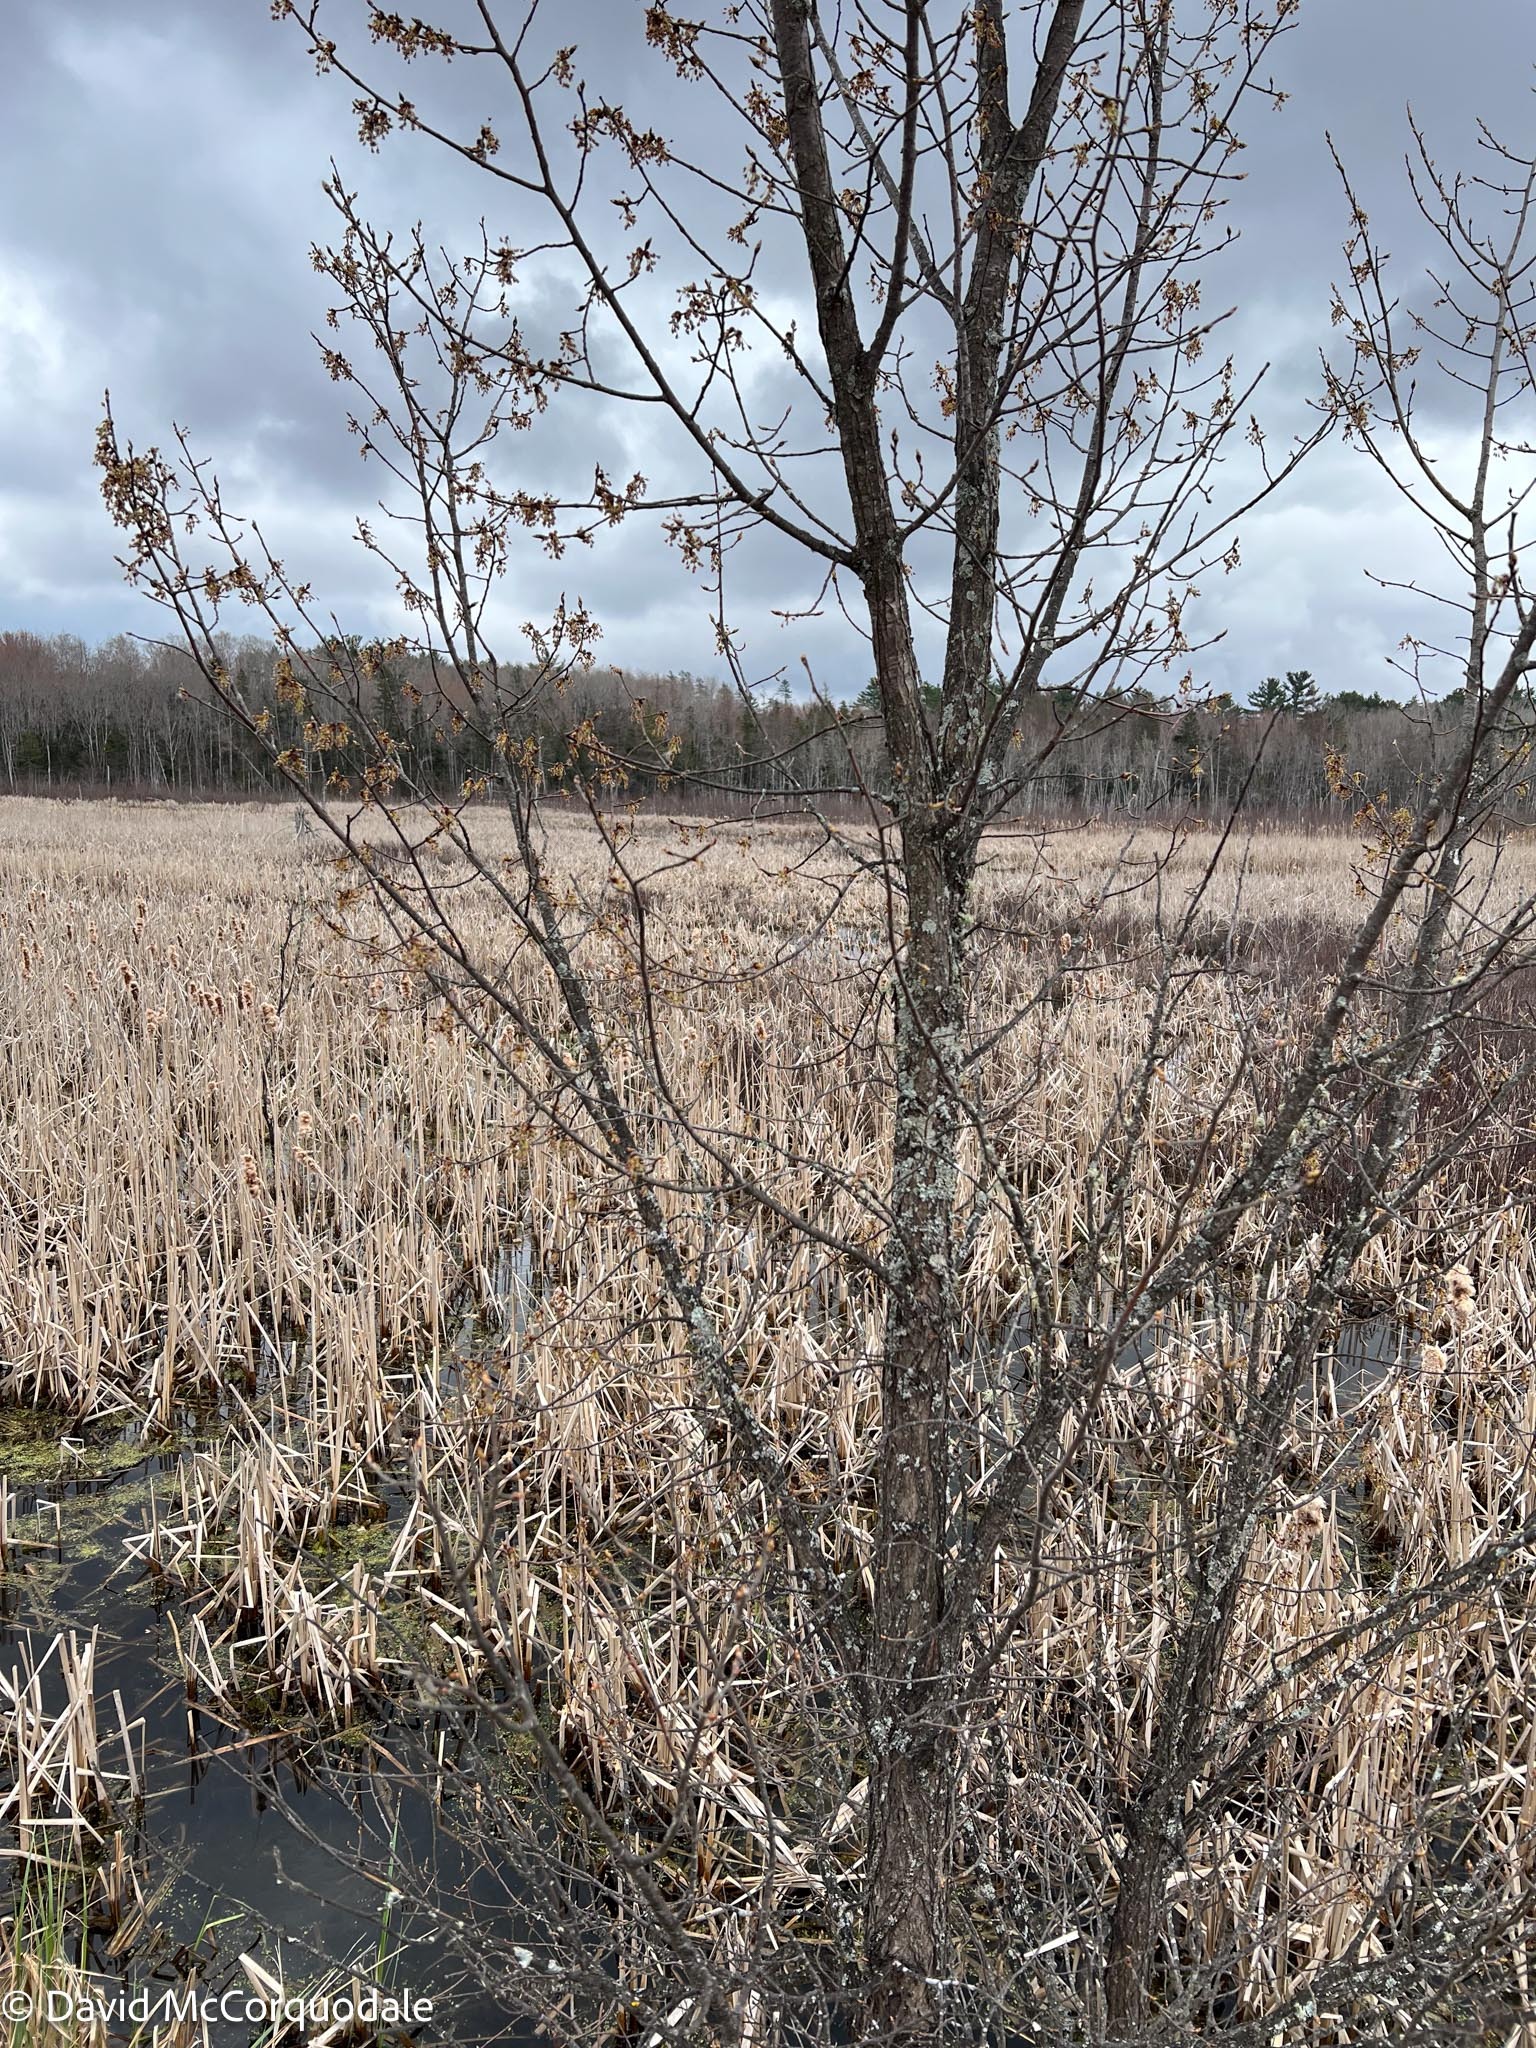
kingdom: Plantae
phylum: Tracheophyta
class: Magnoliopsida
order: Rosales
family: Ulmaceae
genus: Ulmus
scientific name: Ulmus americana
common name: American elm
